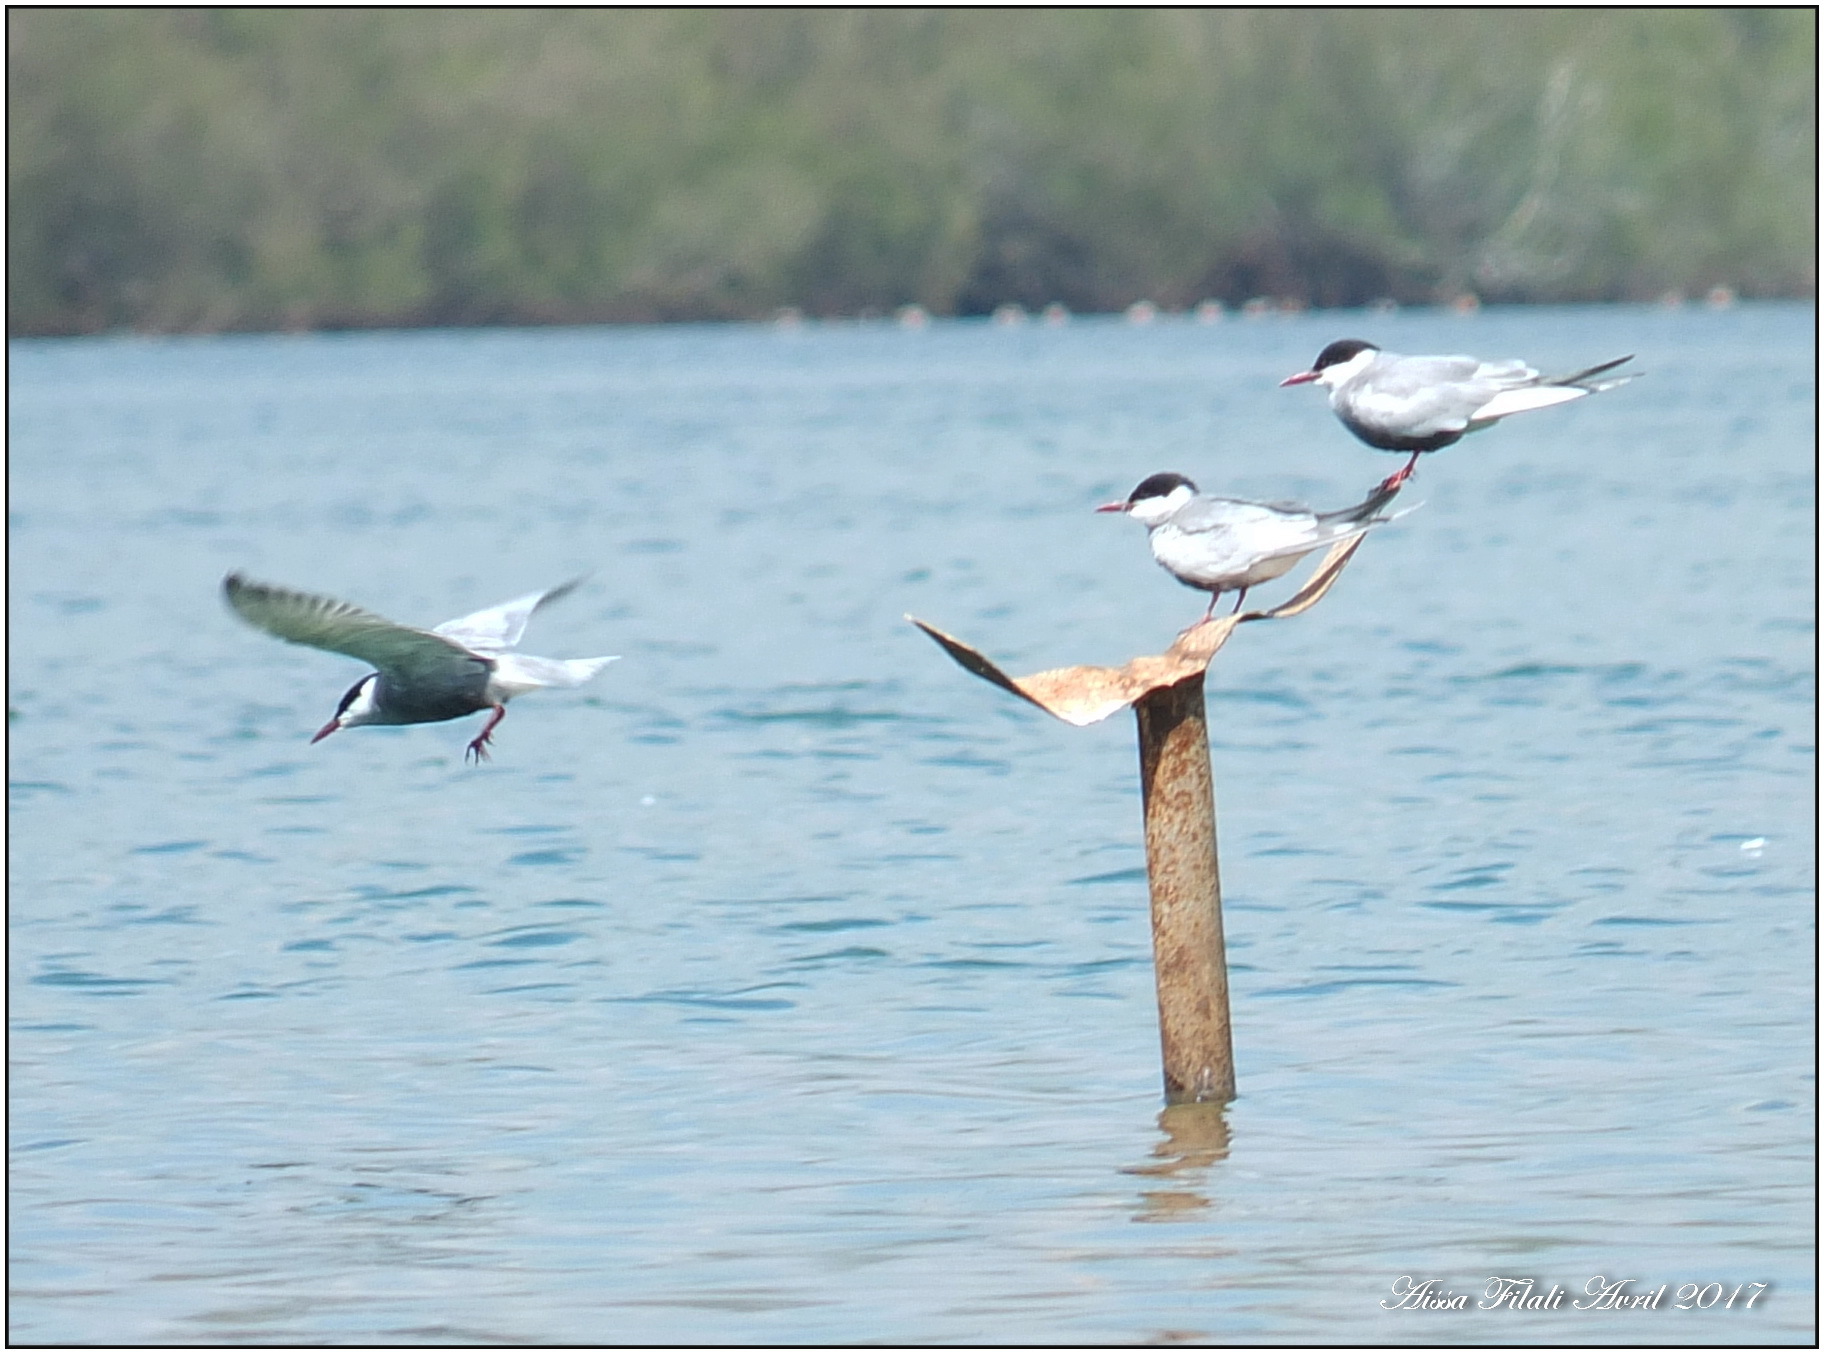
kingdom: Animalia
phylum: Chordata
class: Aves
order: Charadriiformes
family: Laridae
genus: Chlidonias
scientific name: Chlidonias hybrida
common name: Whiskered tern
